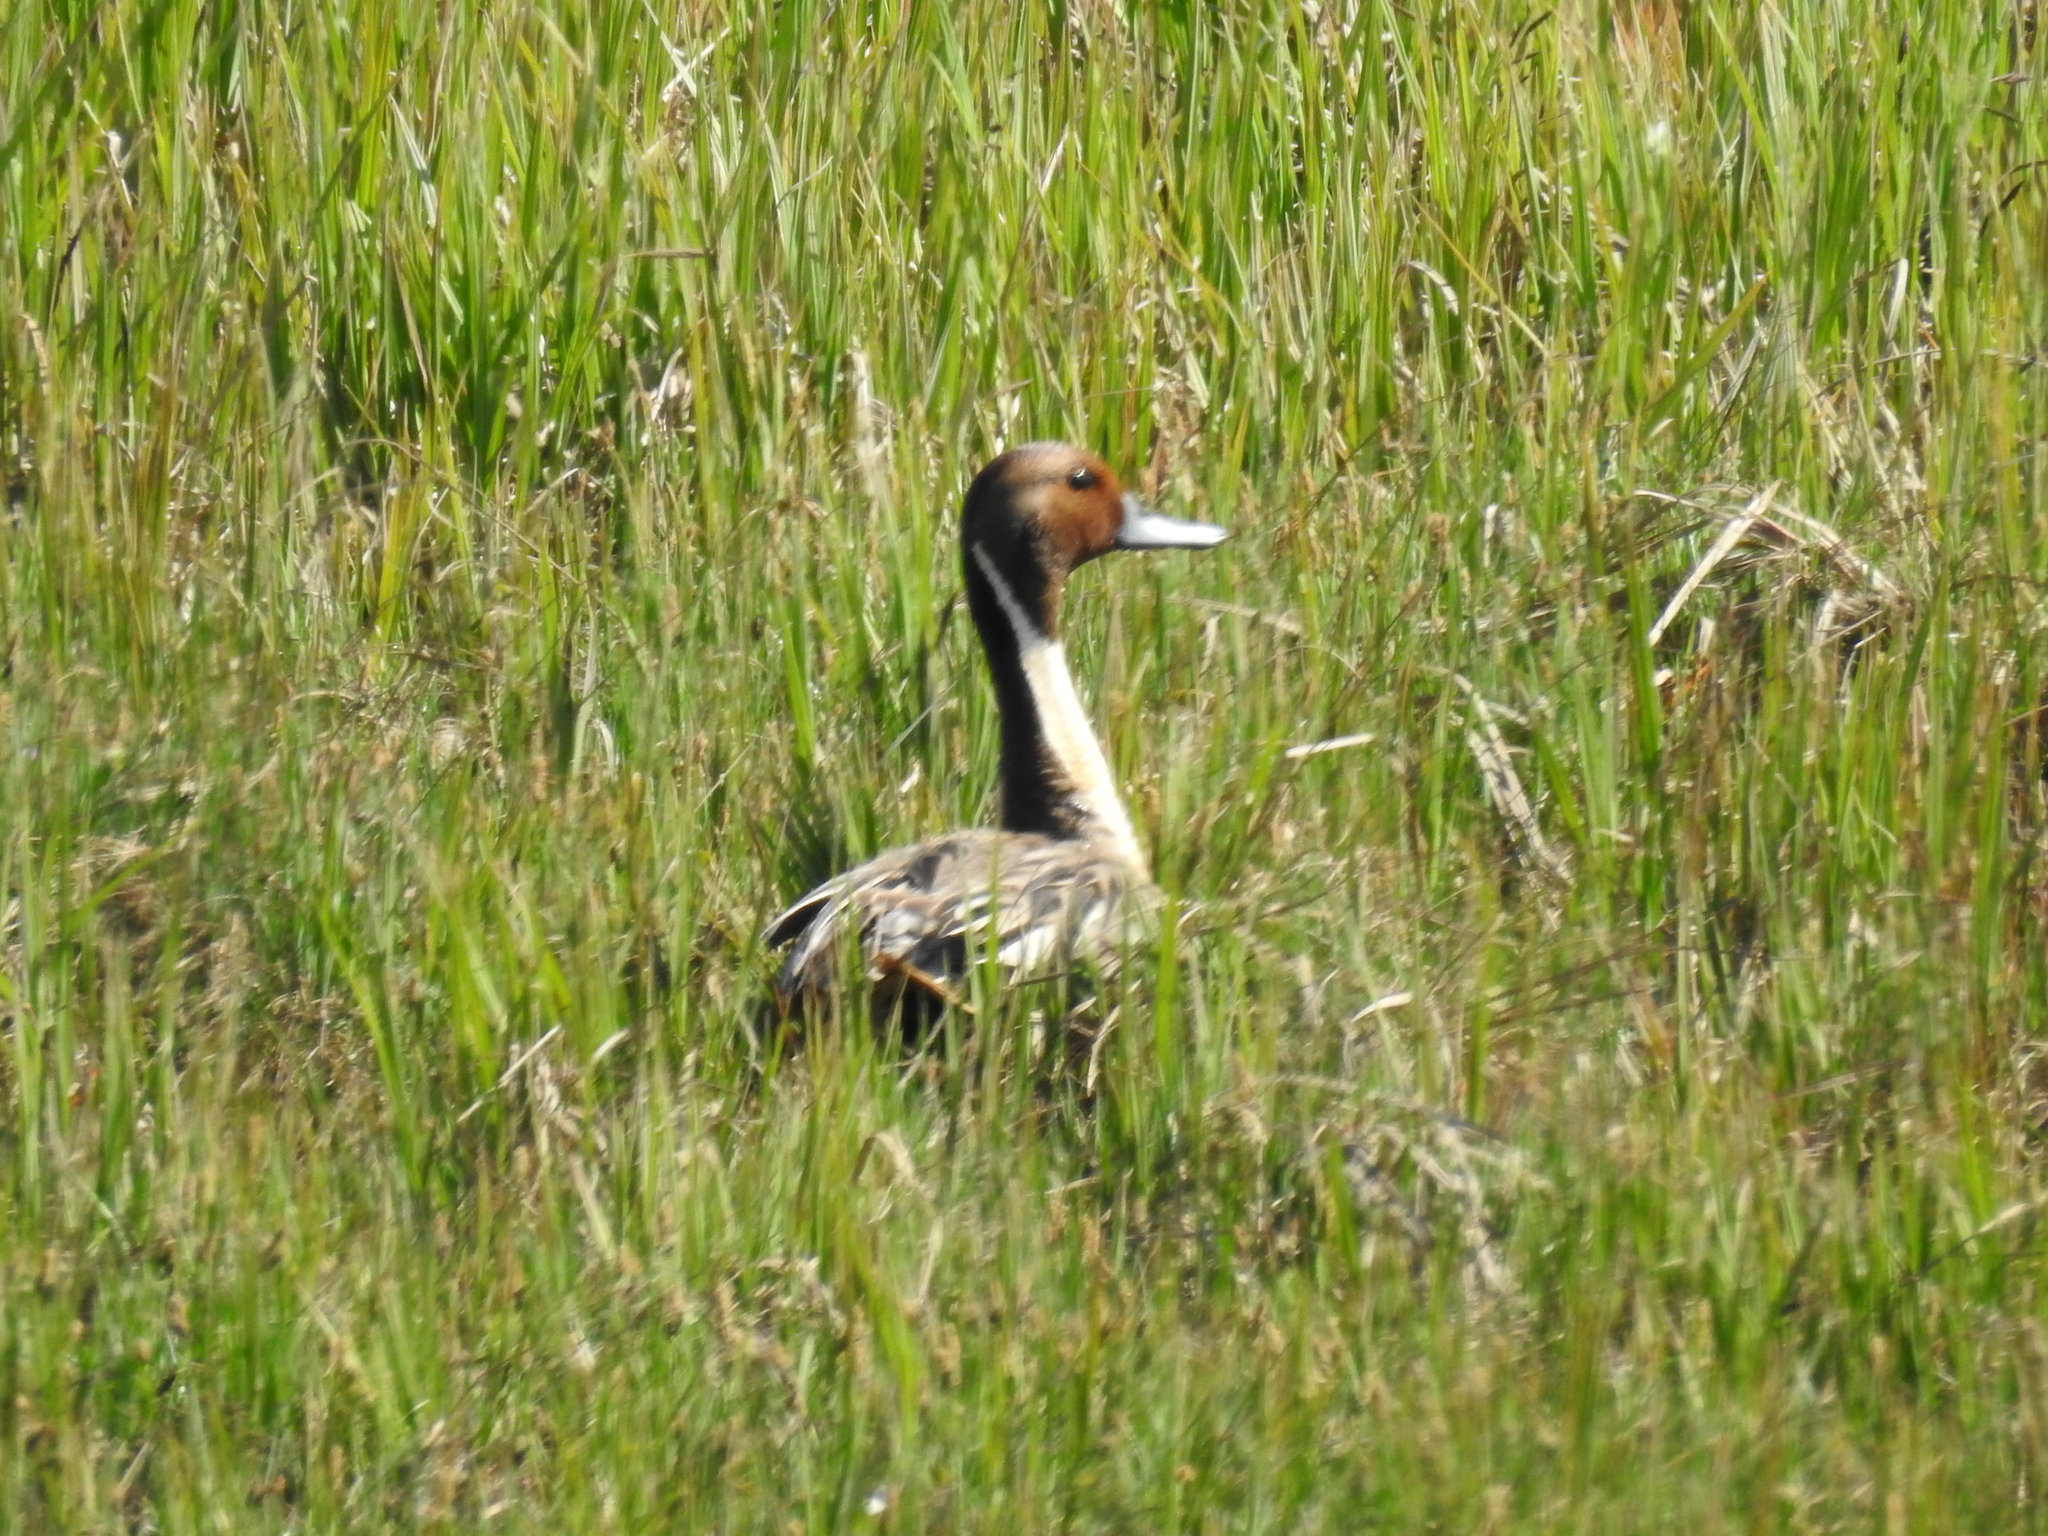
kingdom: Animalia
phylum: Chordata
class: Aves
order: Anseriformes
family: Anatidae
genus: Anas
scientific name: Anas acuta
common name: Northern pintail
